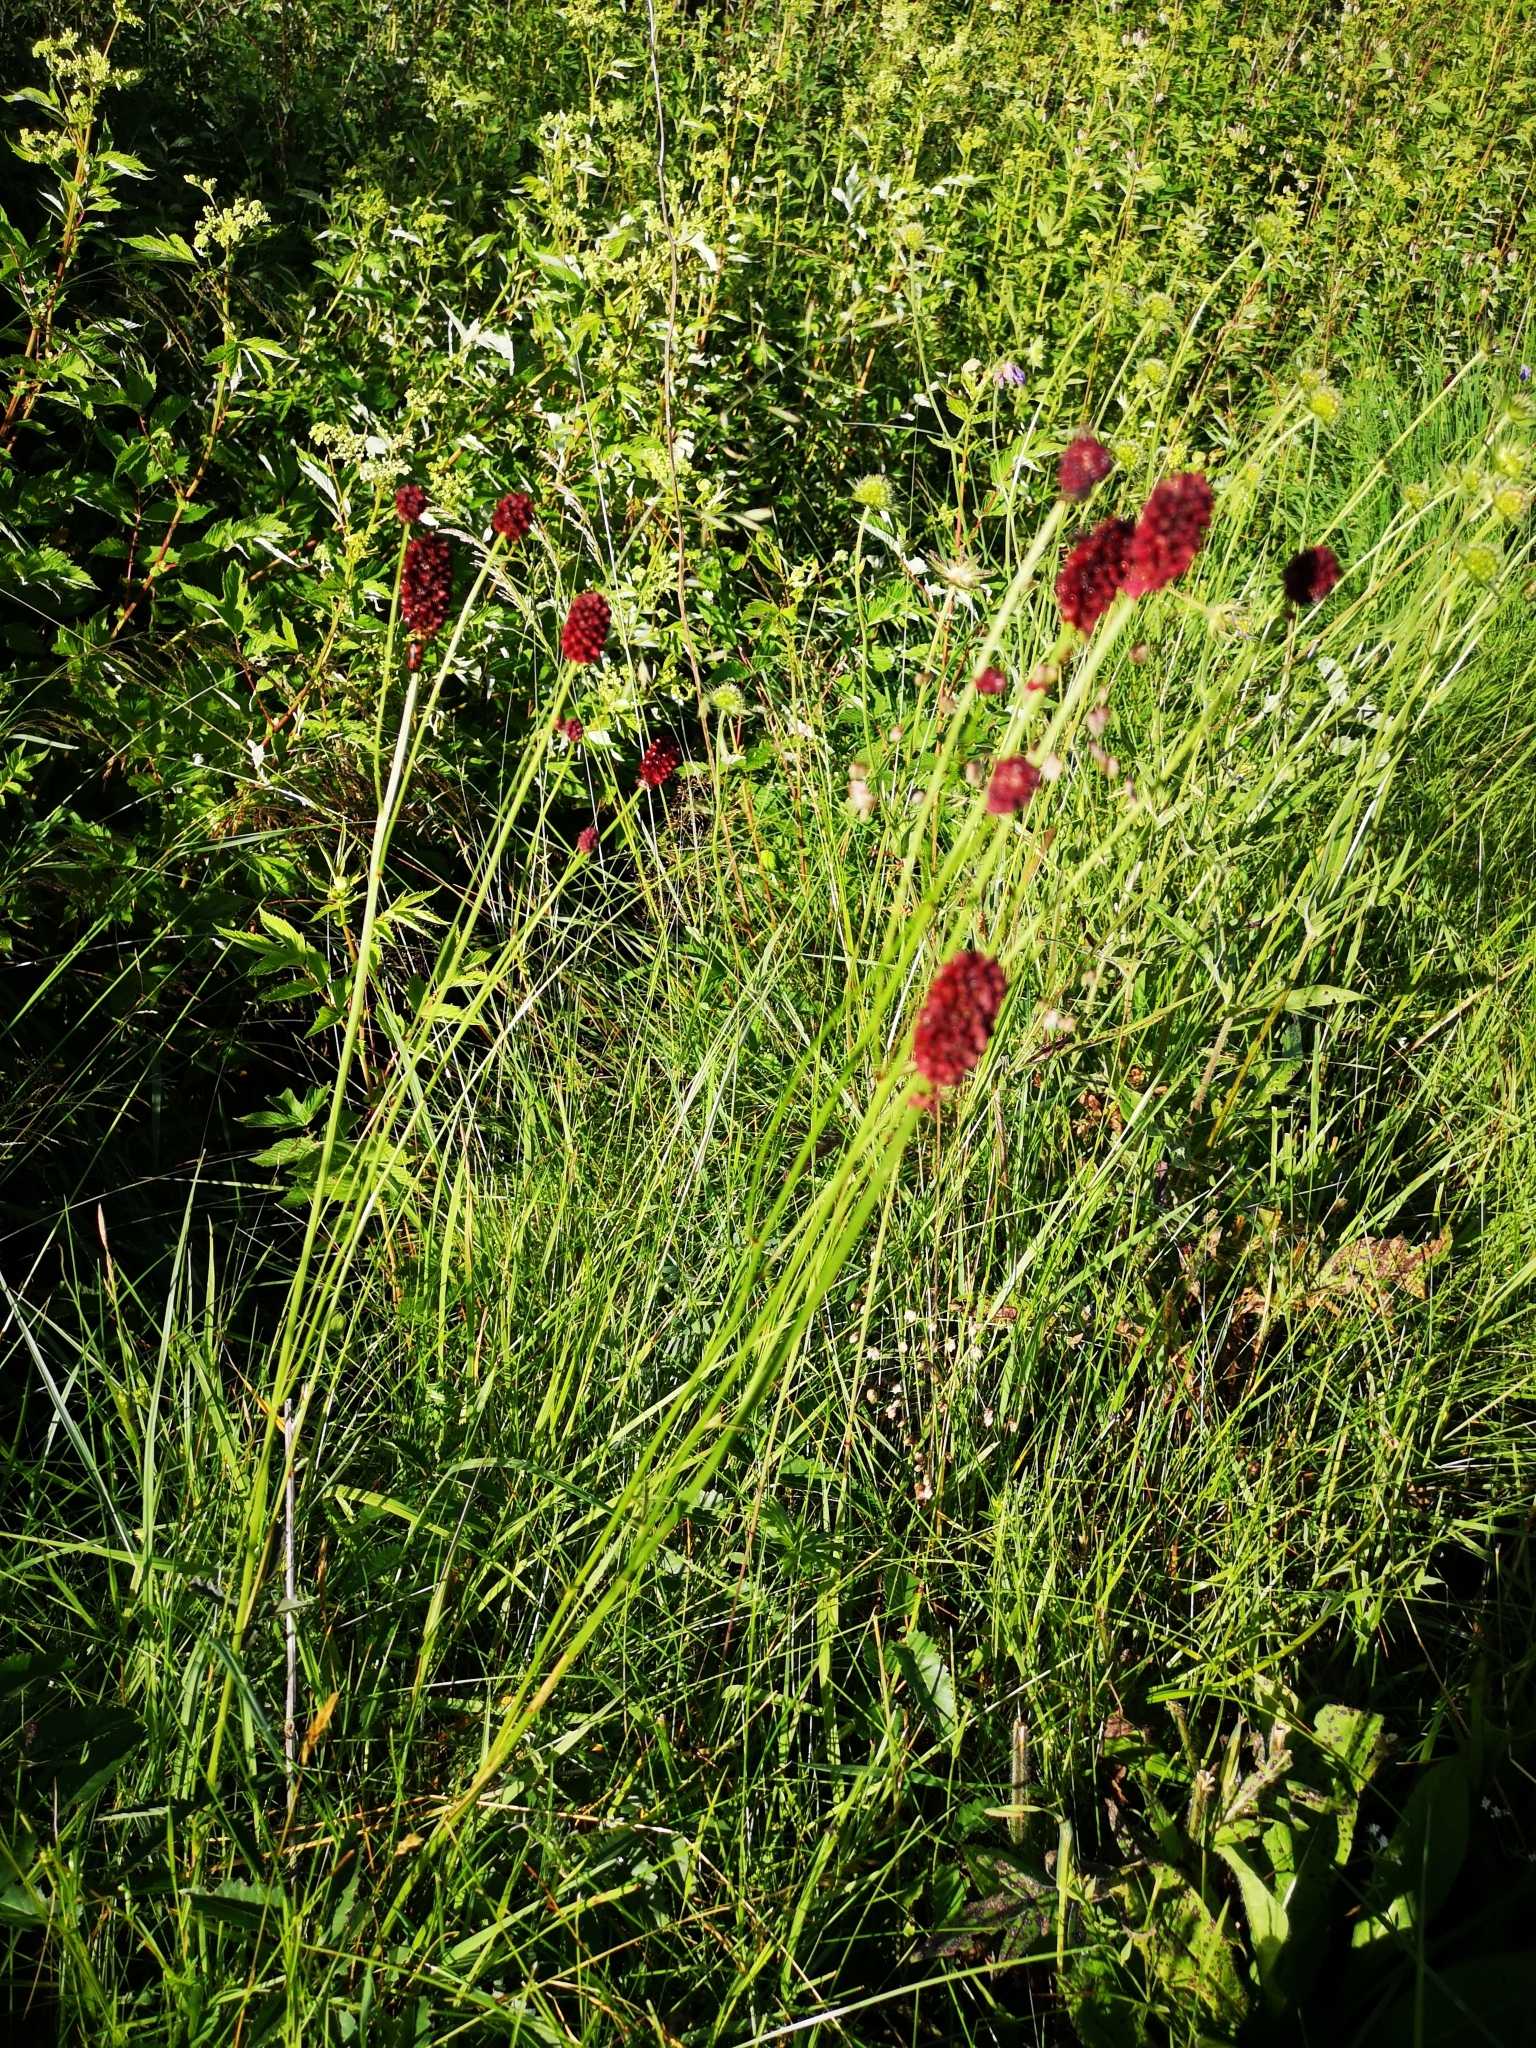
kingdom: Plantae
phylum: Tracheophyta
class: Magnoliopsida
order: Rosales
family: Rosaceae
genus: Sanguisorba
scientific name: Sanguisorba officinalis
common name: Great burnet
